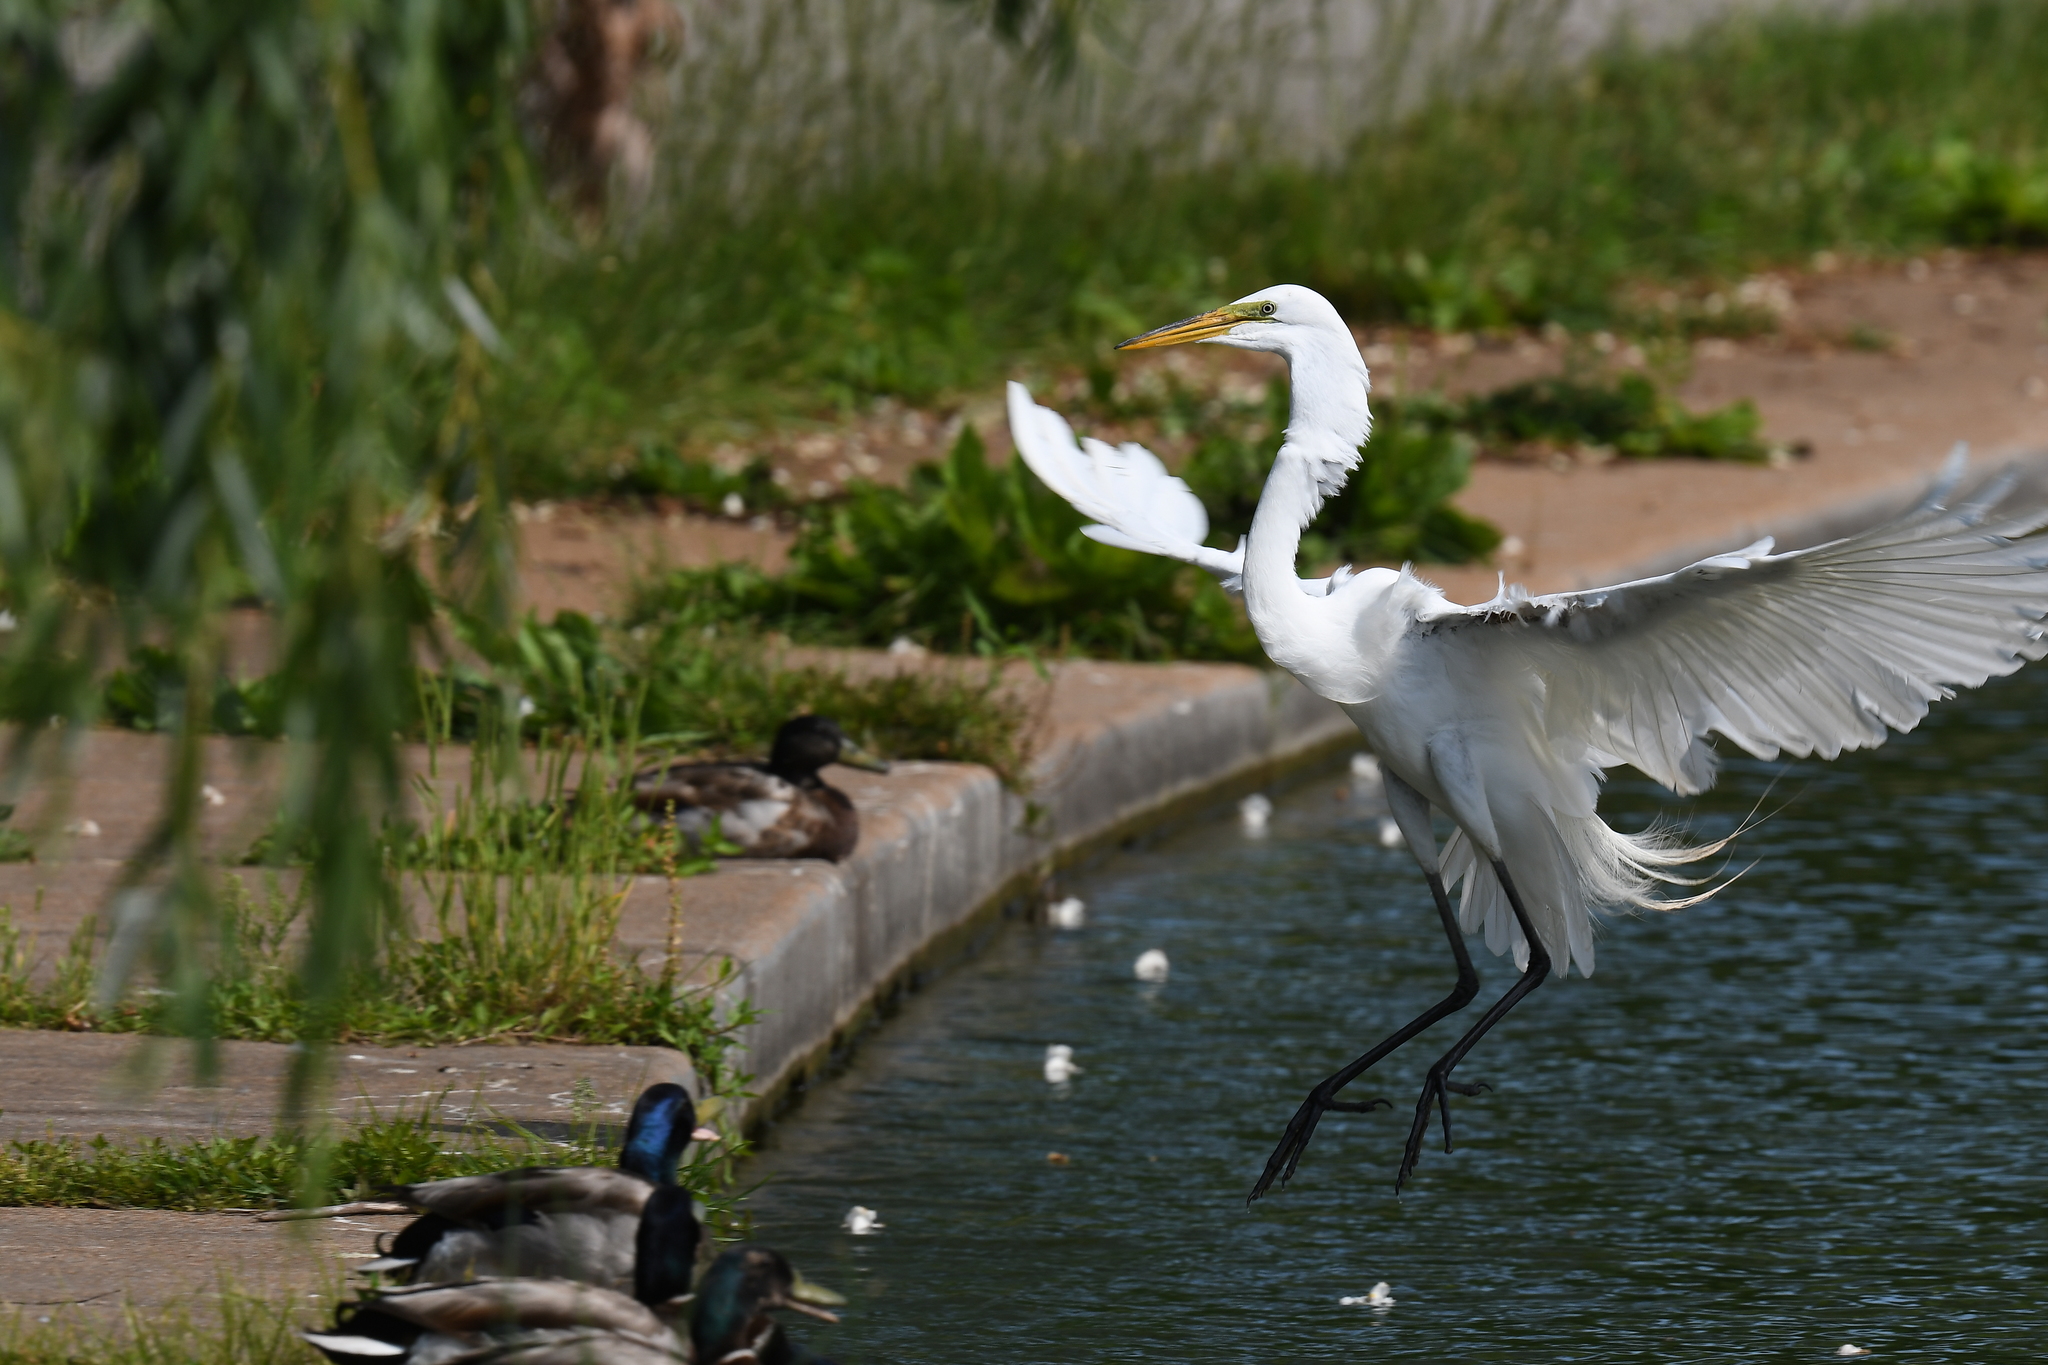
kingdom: Animalia
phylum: Chordata
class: Aves
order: Pelecaniformes
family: Ardeidae
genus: Ardea
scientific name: Ardea alba
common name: Great egret
